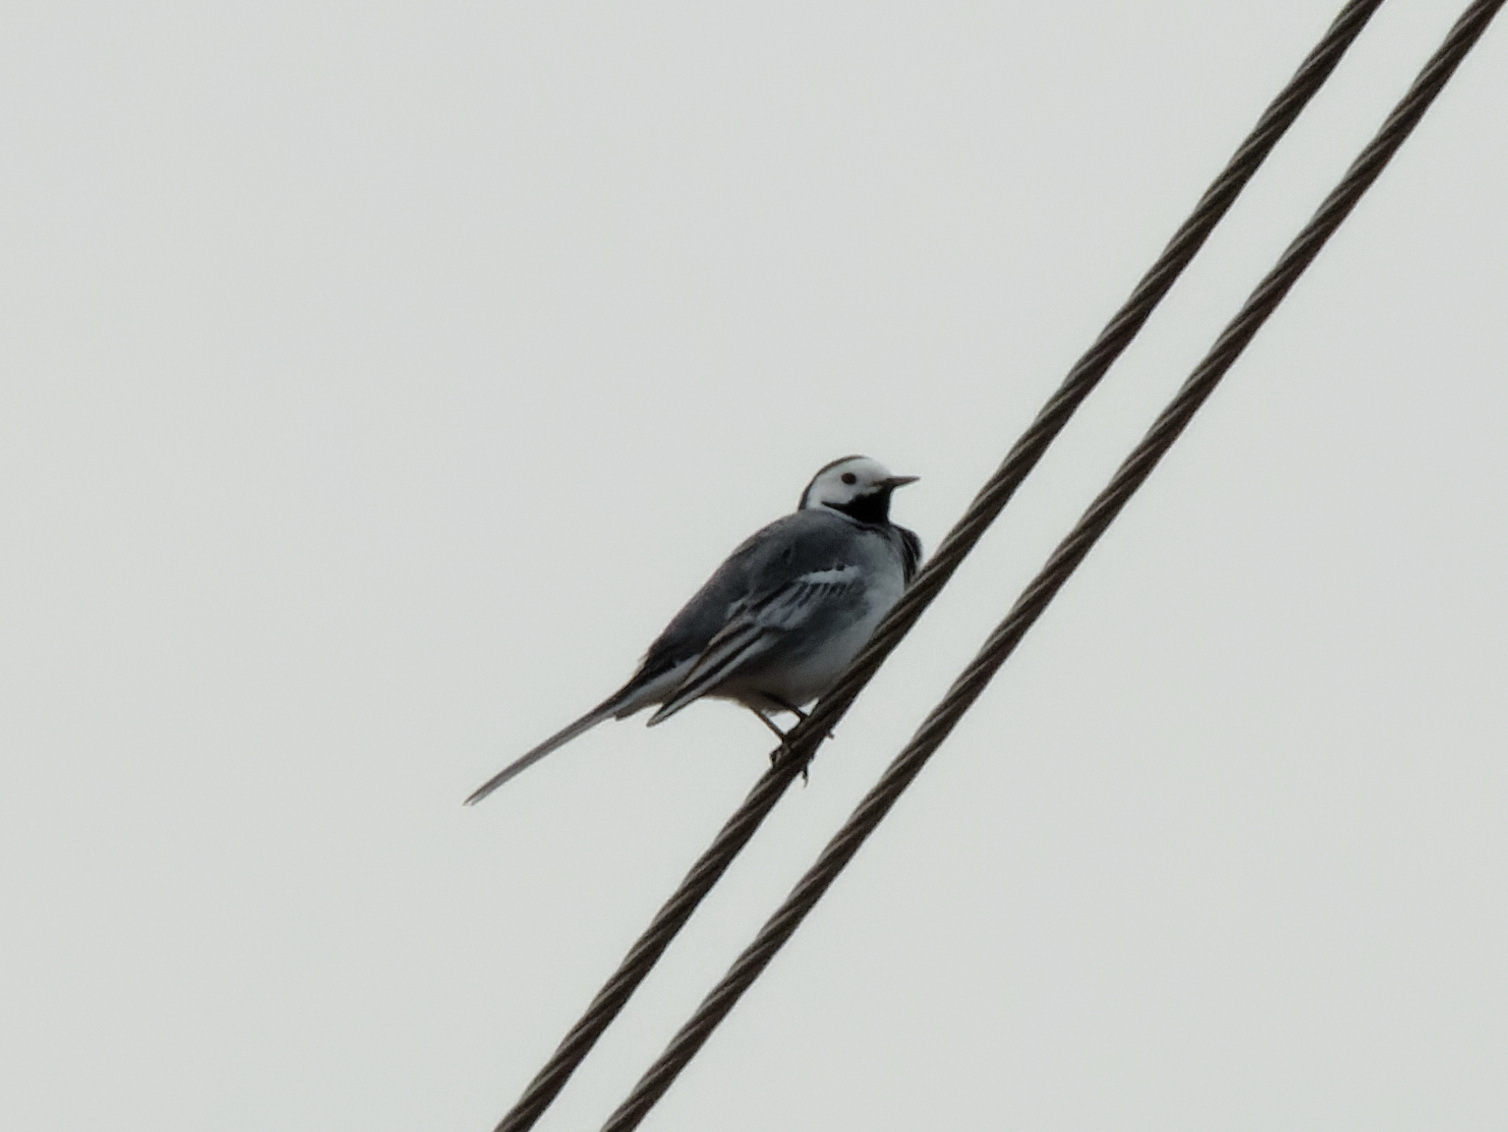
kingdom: Animalia
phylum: Chordata
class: Aves
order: Passeriformes
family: Motacillidae
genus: Motacilla
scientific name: Motacilla alba
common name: White wagtail
